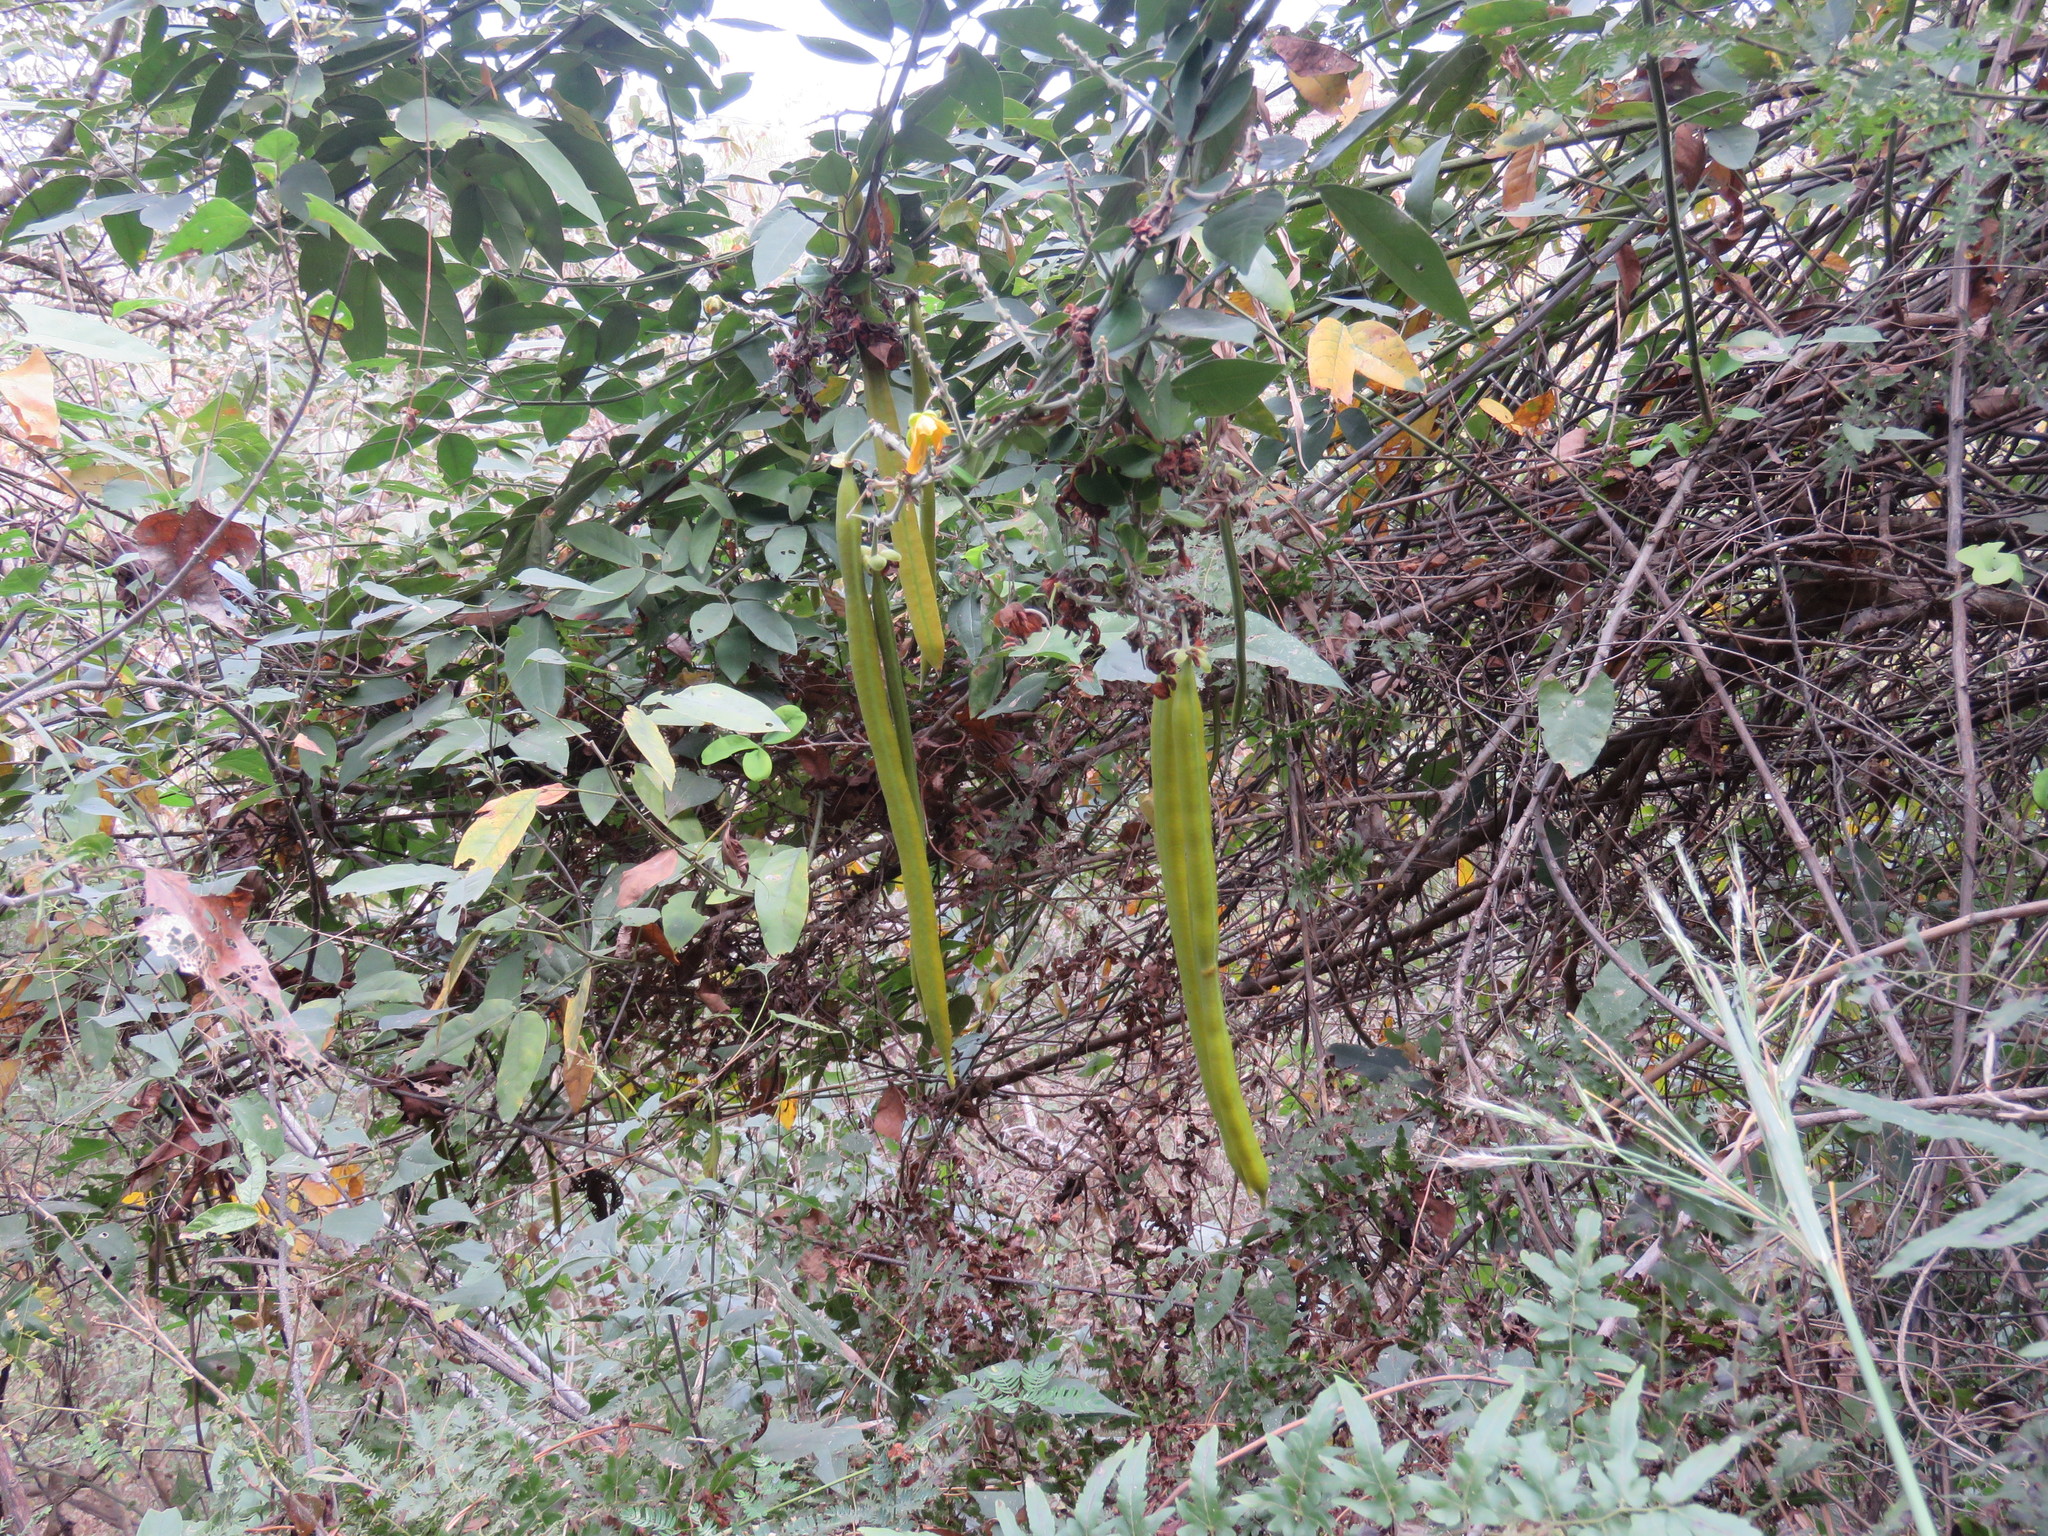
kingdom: Plantae
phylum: Tracheophyta
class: Magnoliopsida
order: Fabales
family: Fabaceae
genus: Senna
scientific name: Senna quinquangulata
